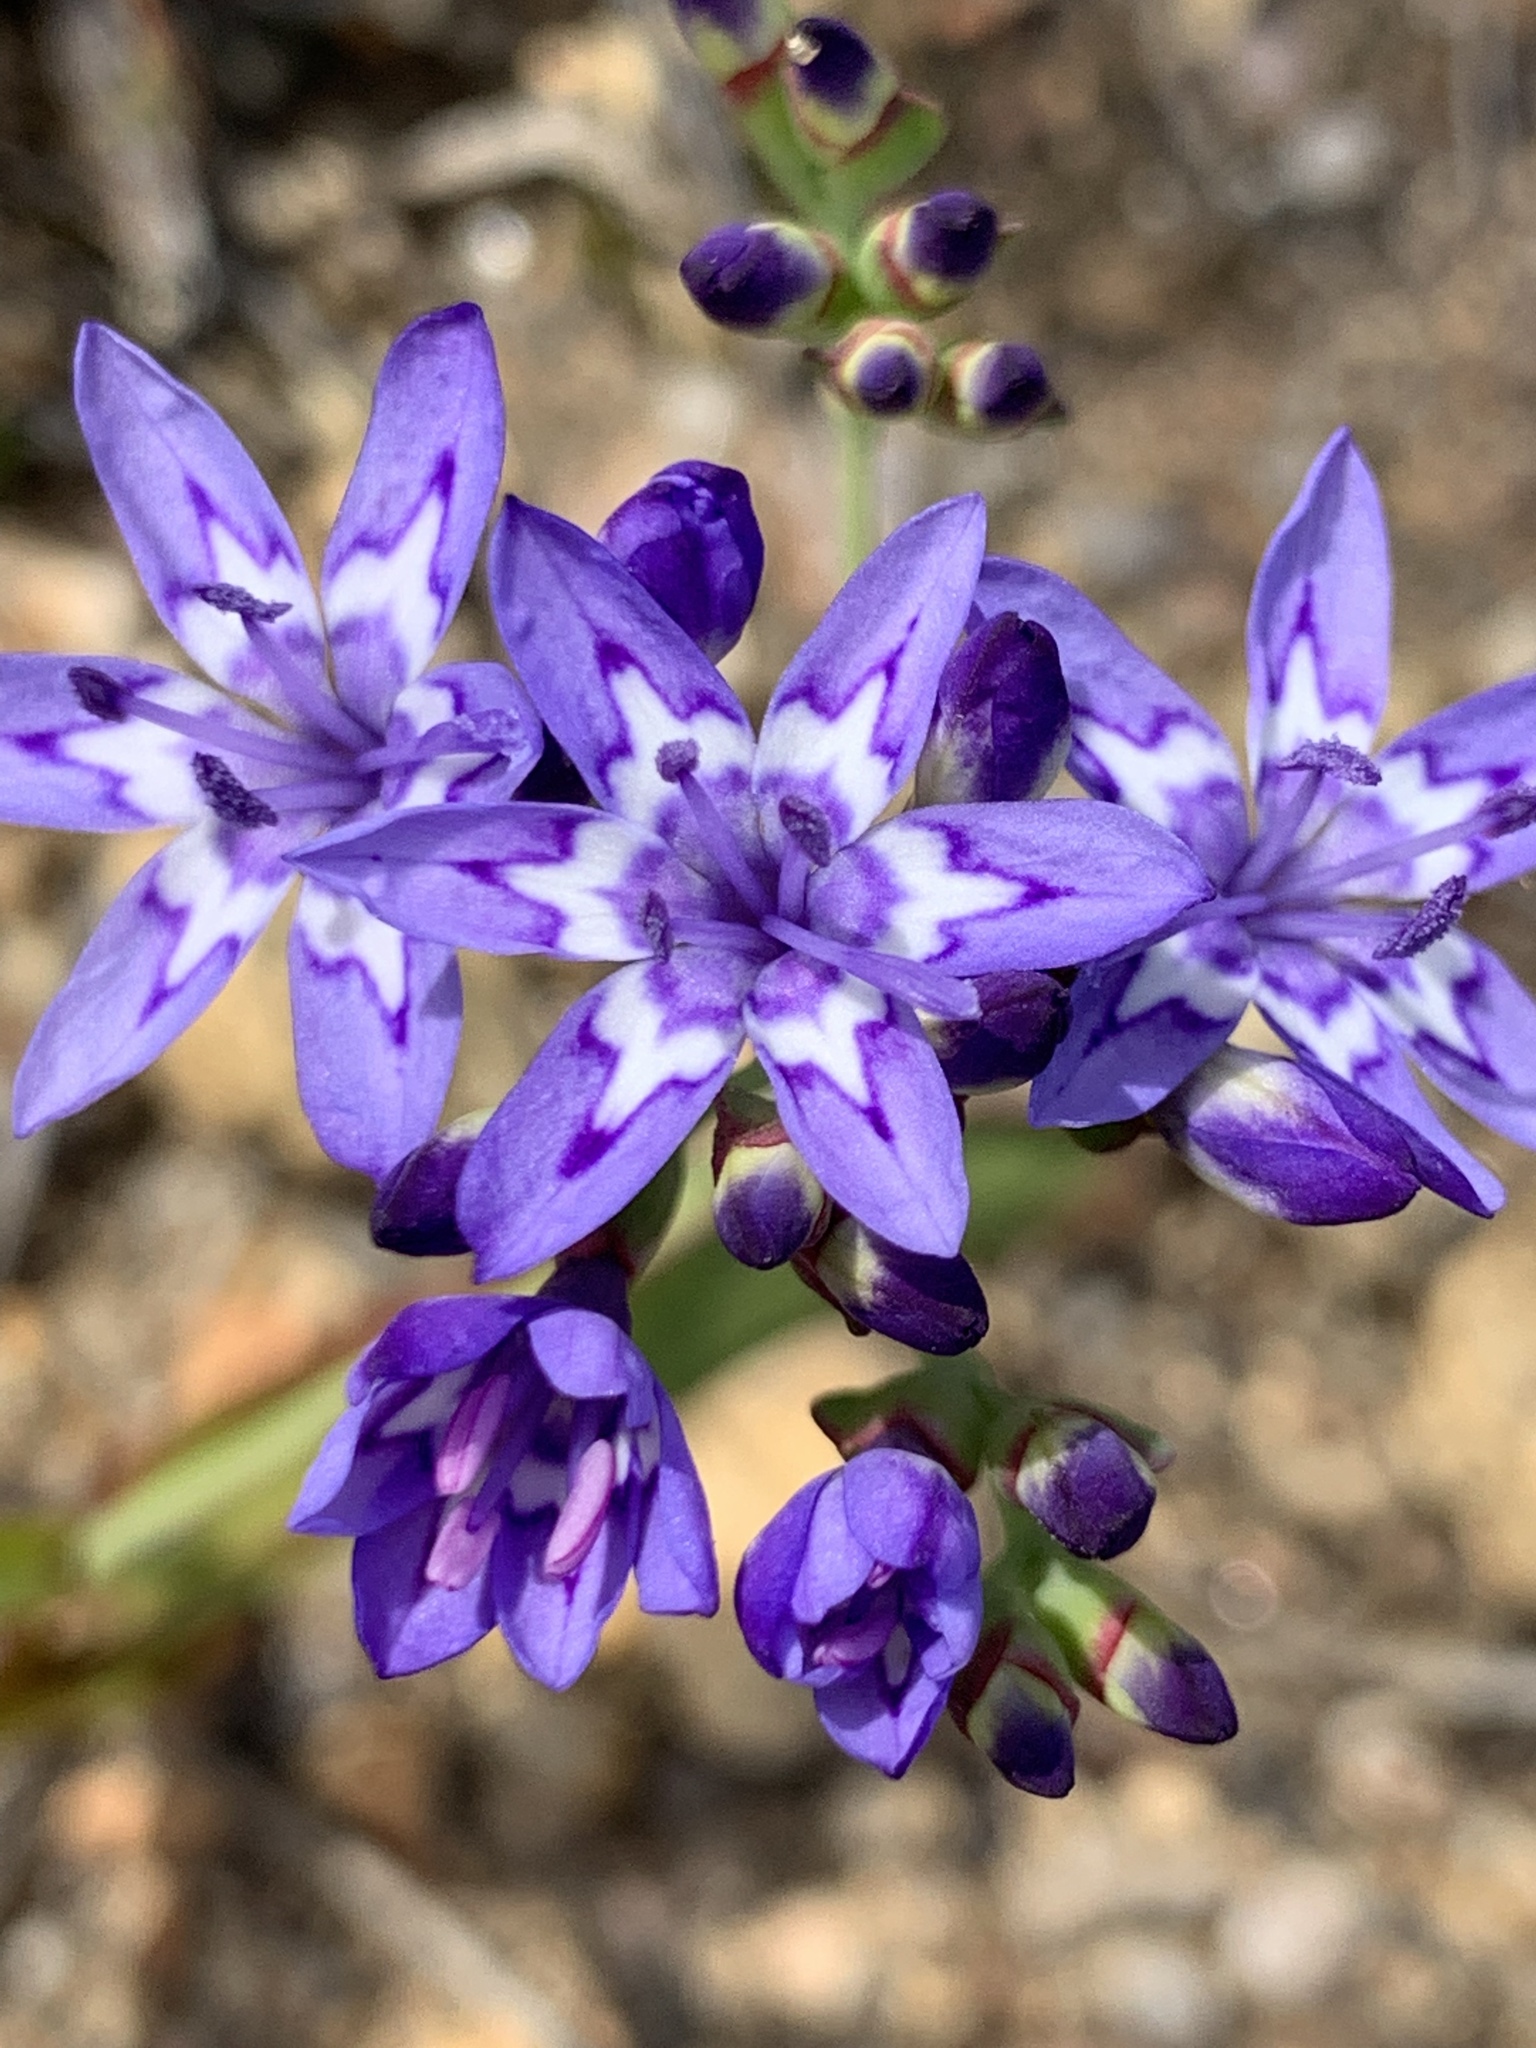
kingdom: Plantae
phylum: Tracheophyta
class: Liliopsida
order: Asparagales
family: Iridaceae
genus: Codonorhiza
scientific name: Codonorhiza corymbosa
